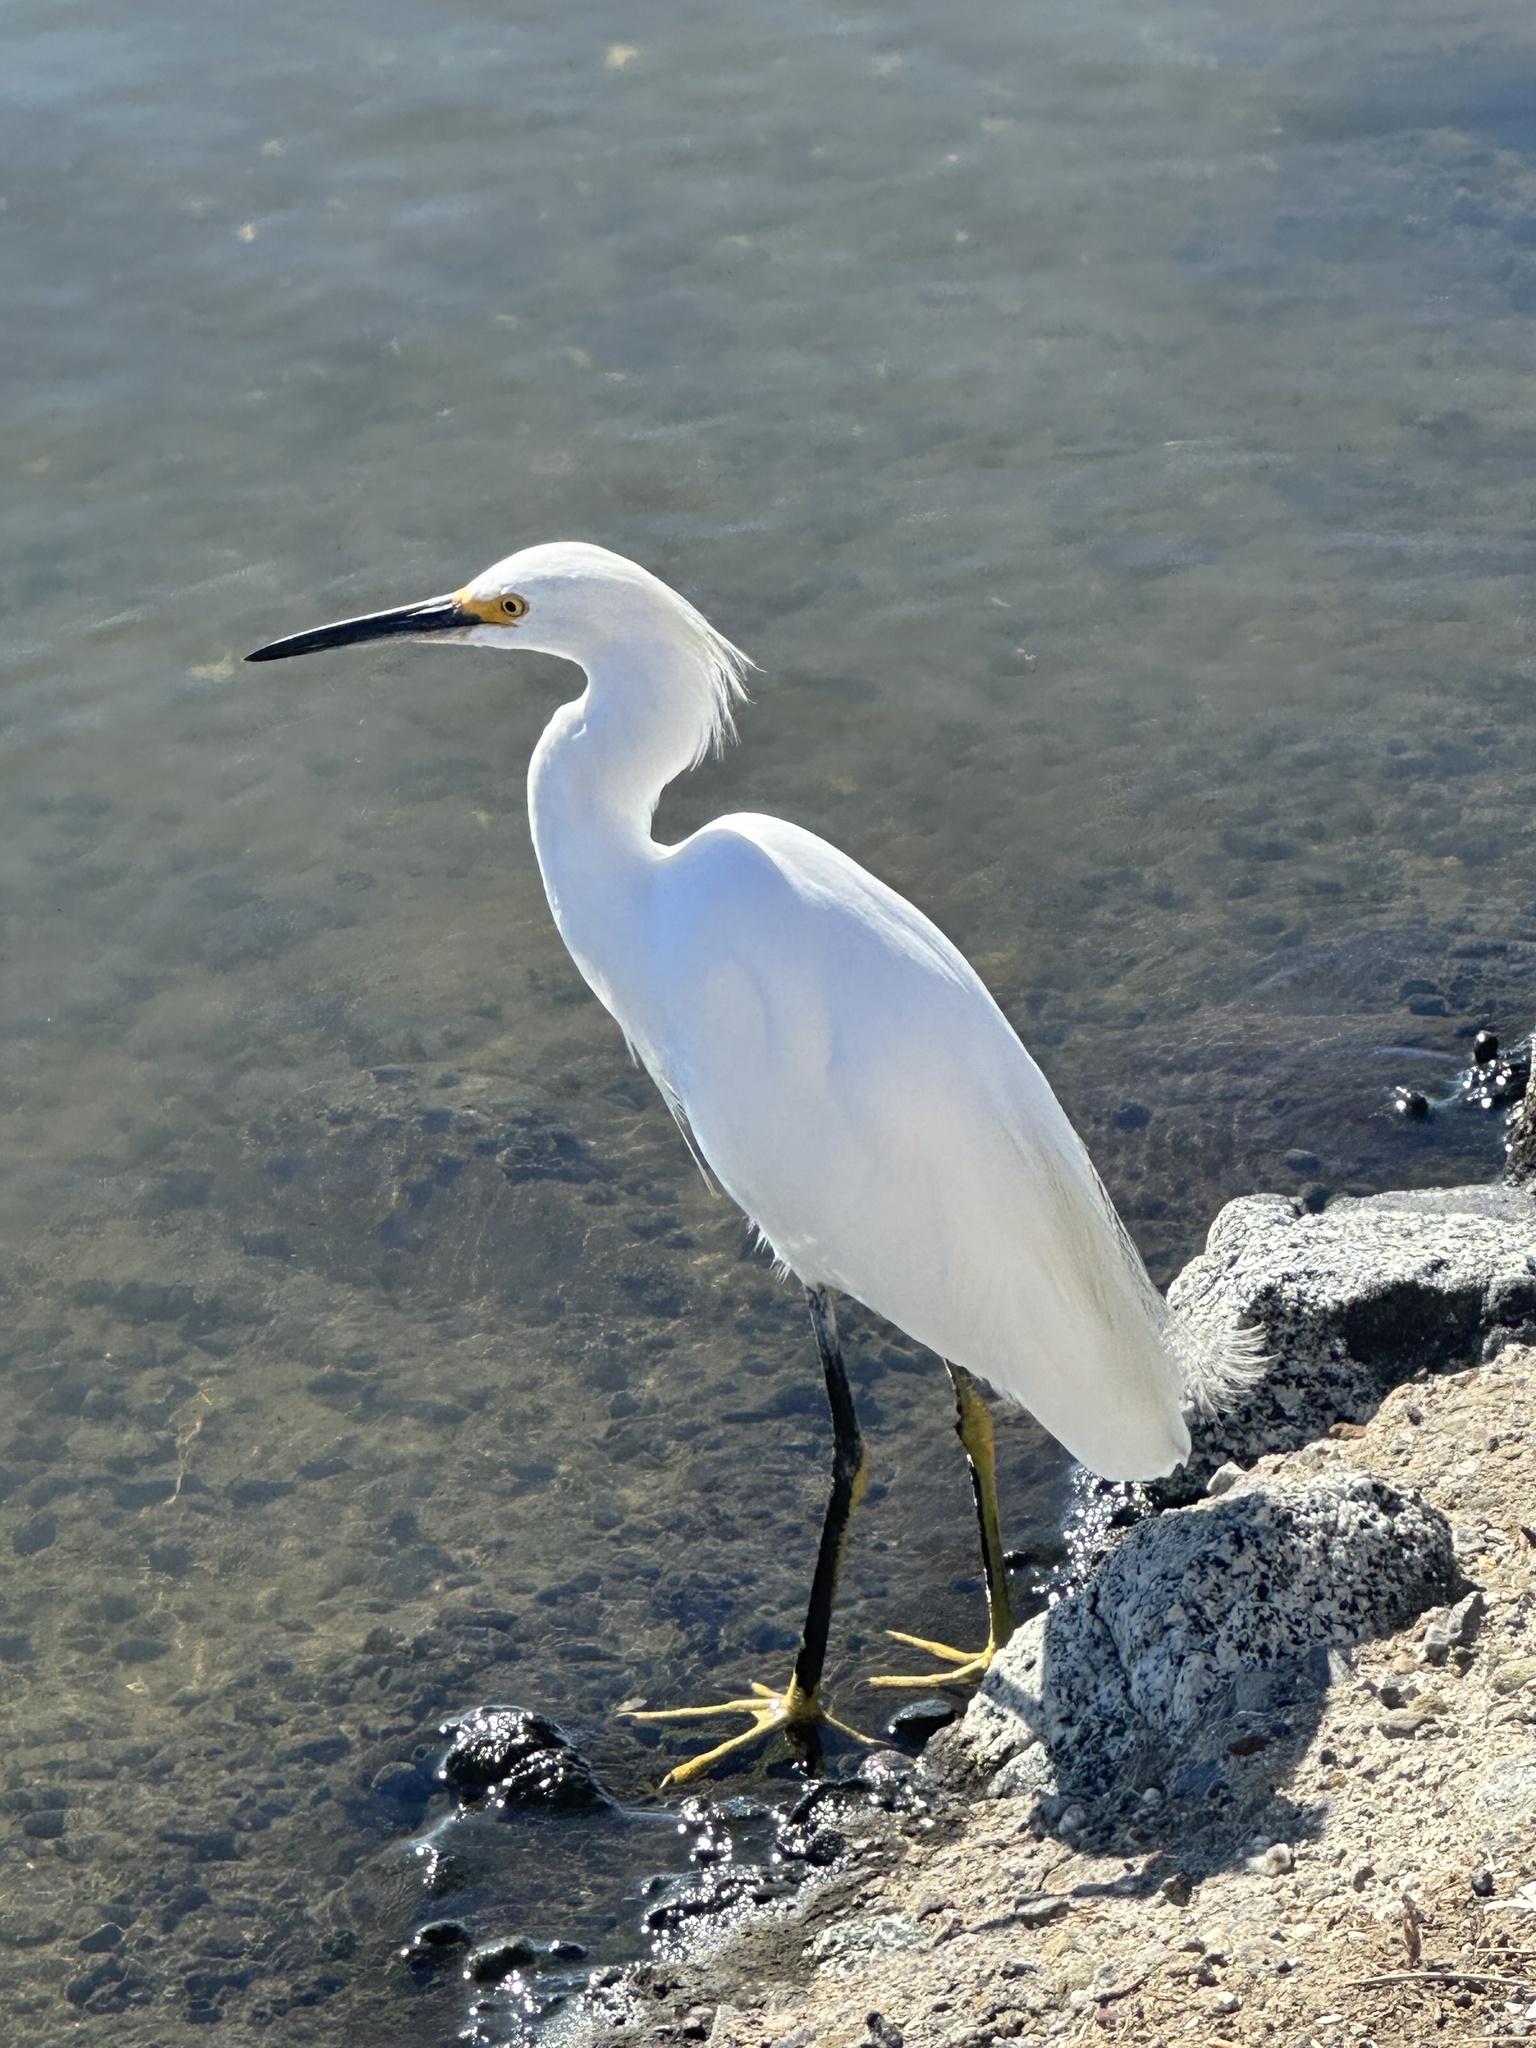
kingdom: Animalia
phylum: Chordata
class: Aves
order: Pelecaniformes
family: Ardeidae
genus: Egretta
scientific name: Egretta thula
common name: Snowy egret
